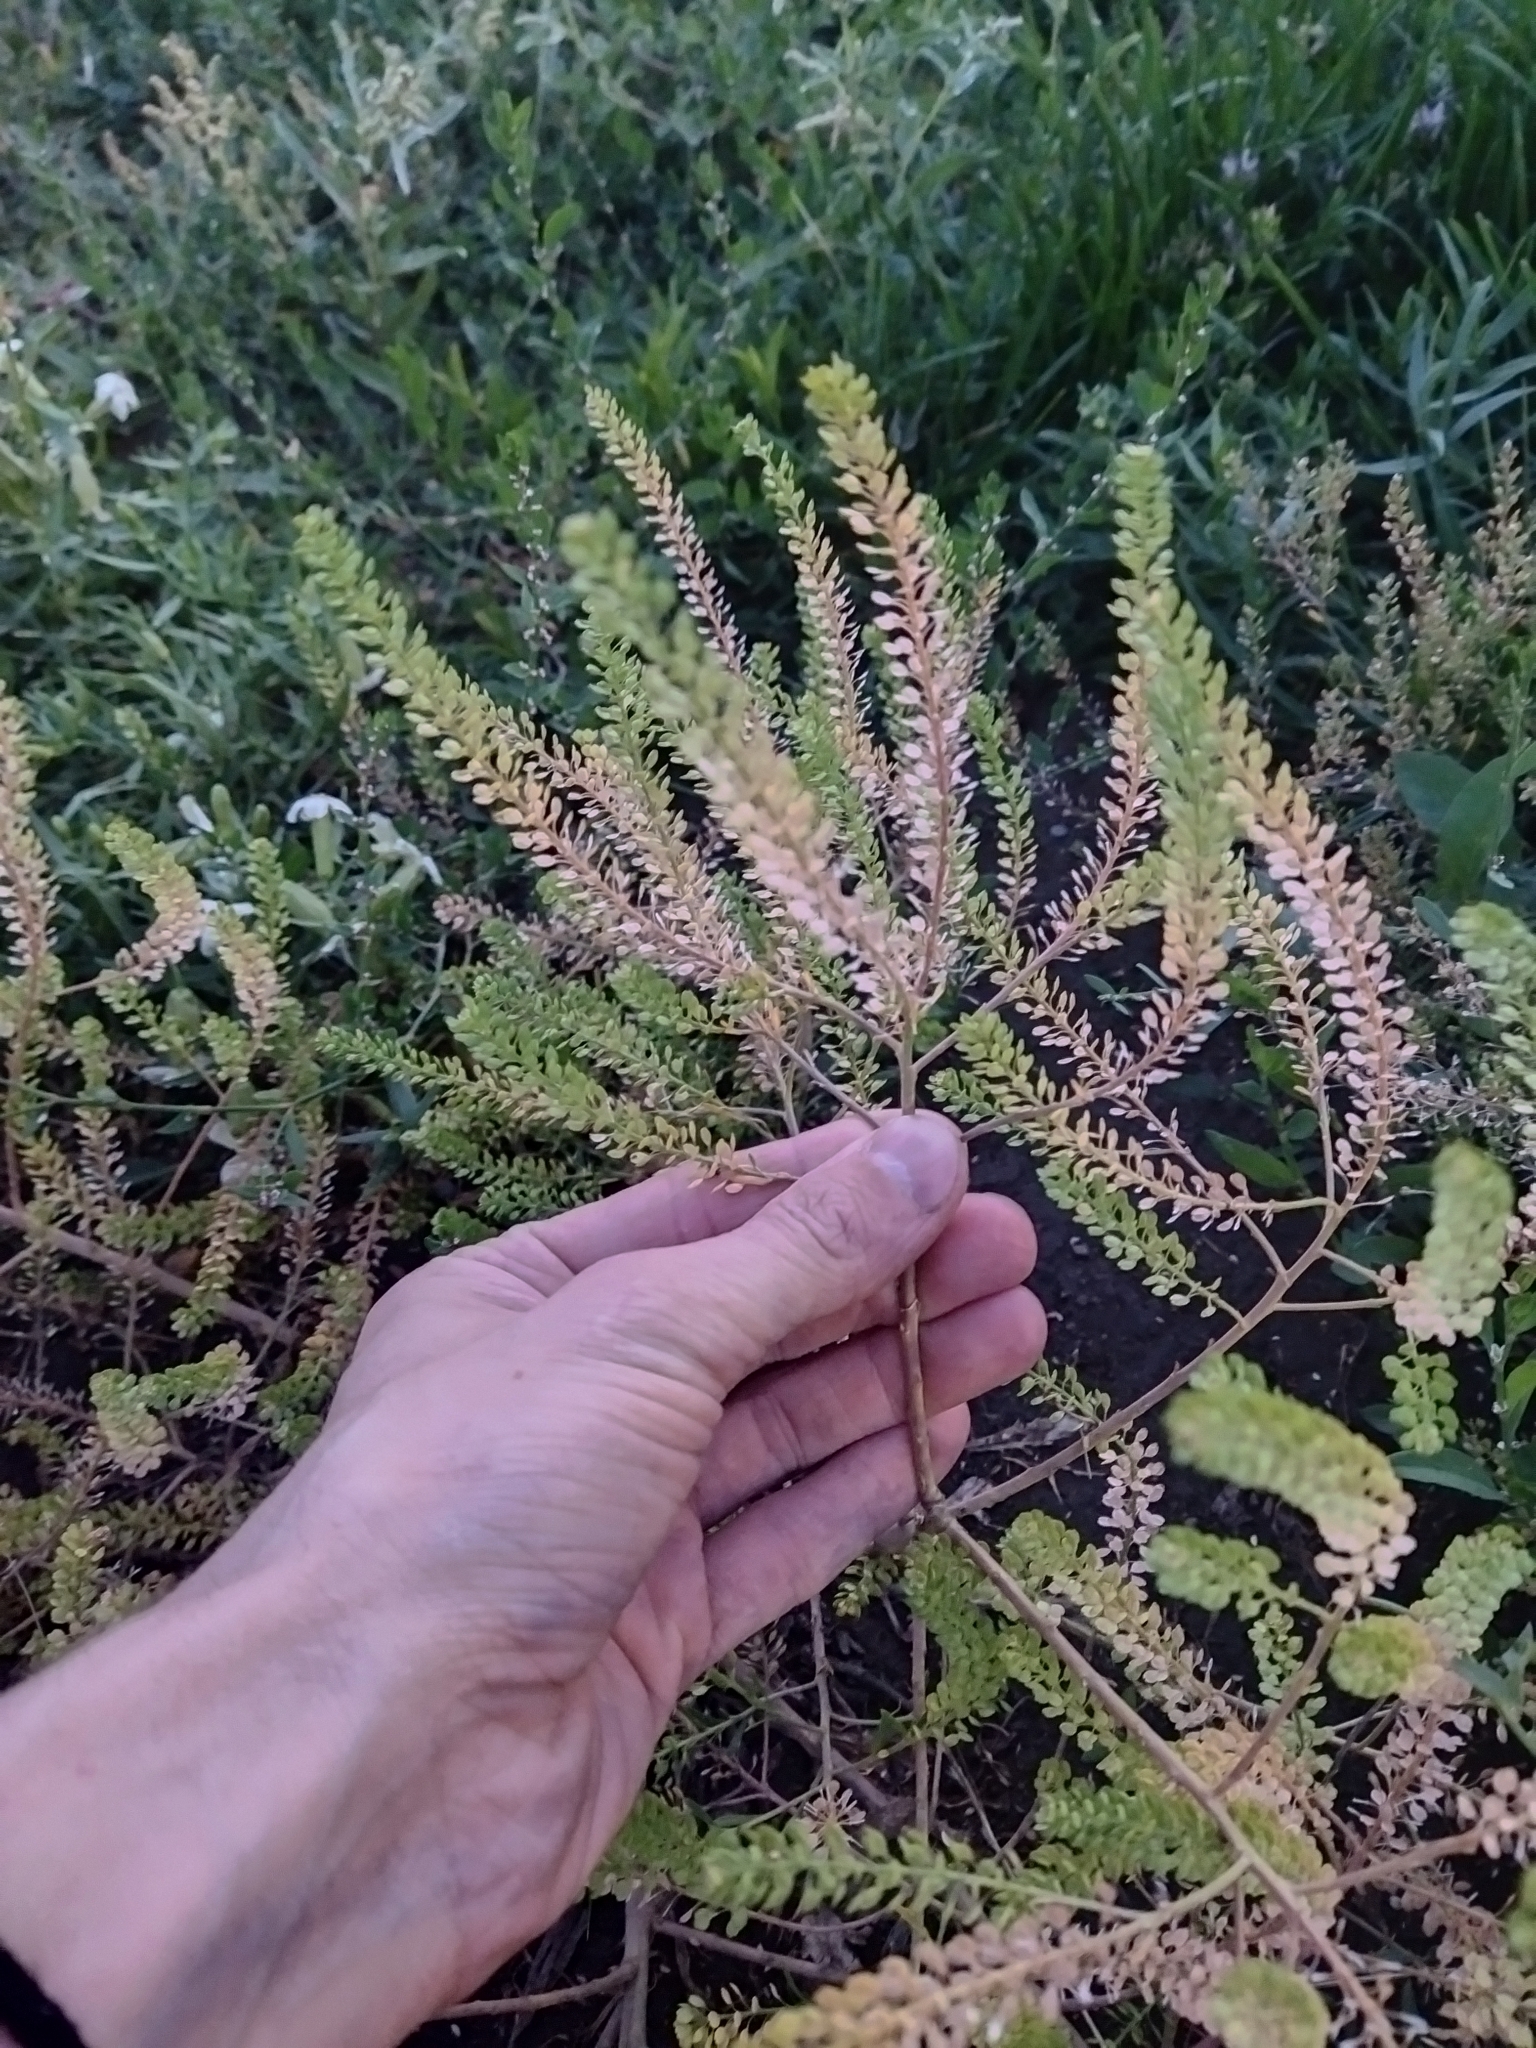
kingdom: Plantae
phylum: Tracheophyta
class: Magnoliopsida
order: Brassicales
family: Brassicaceae
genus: Lepidium
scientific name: Lepidium ruderale
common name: Narrow-leaved pepperwort
